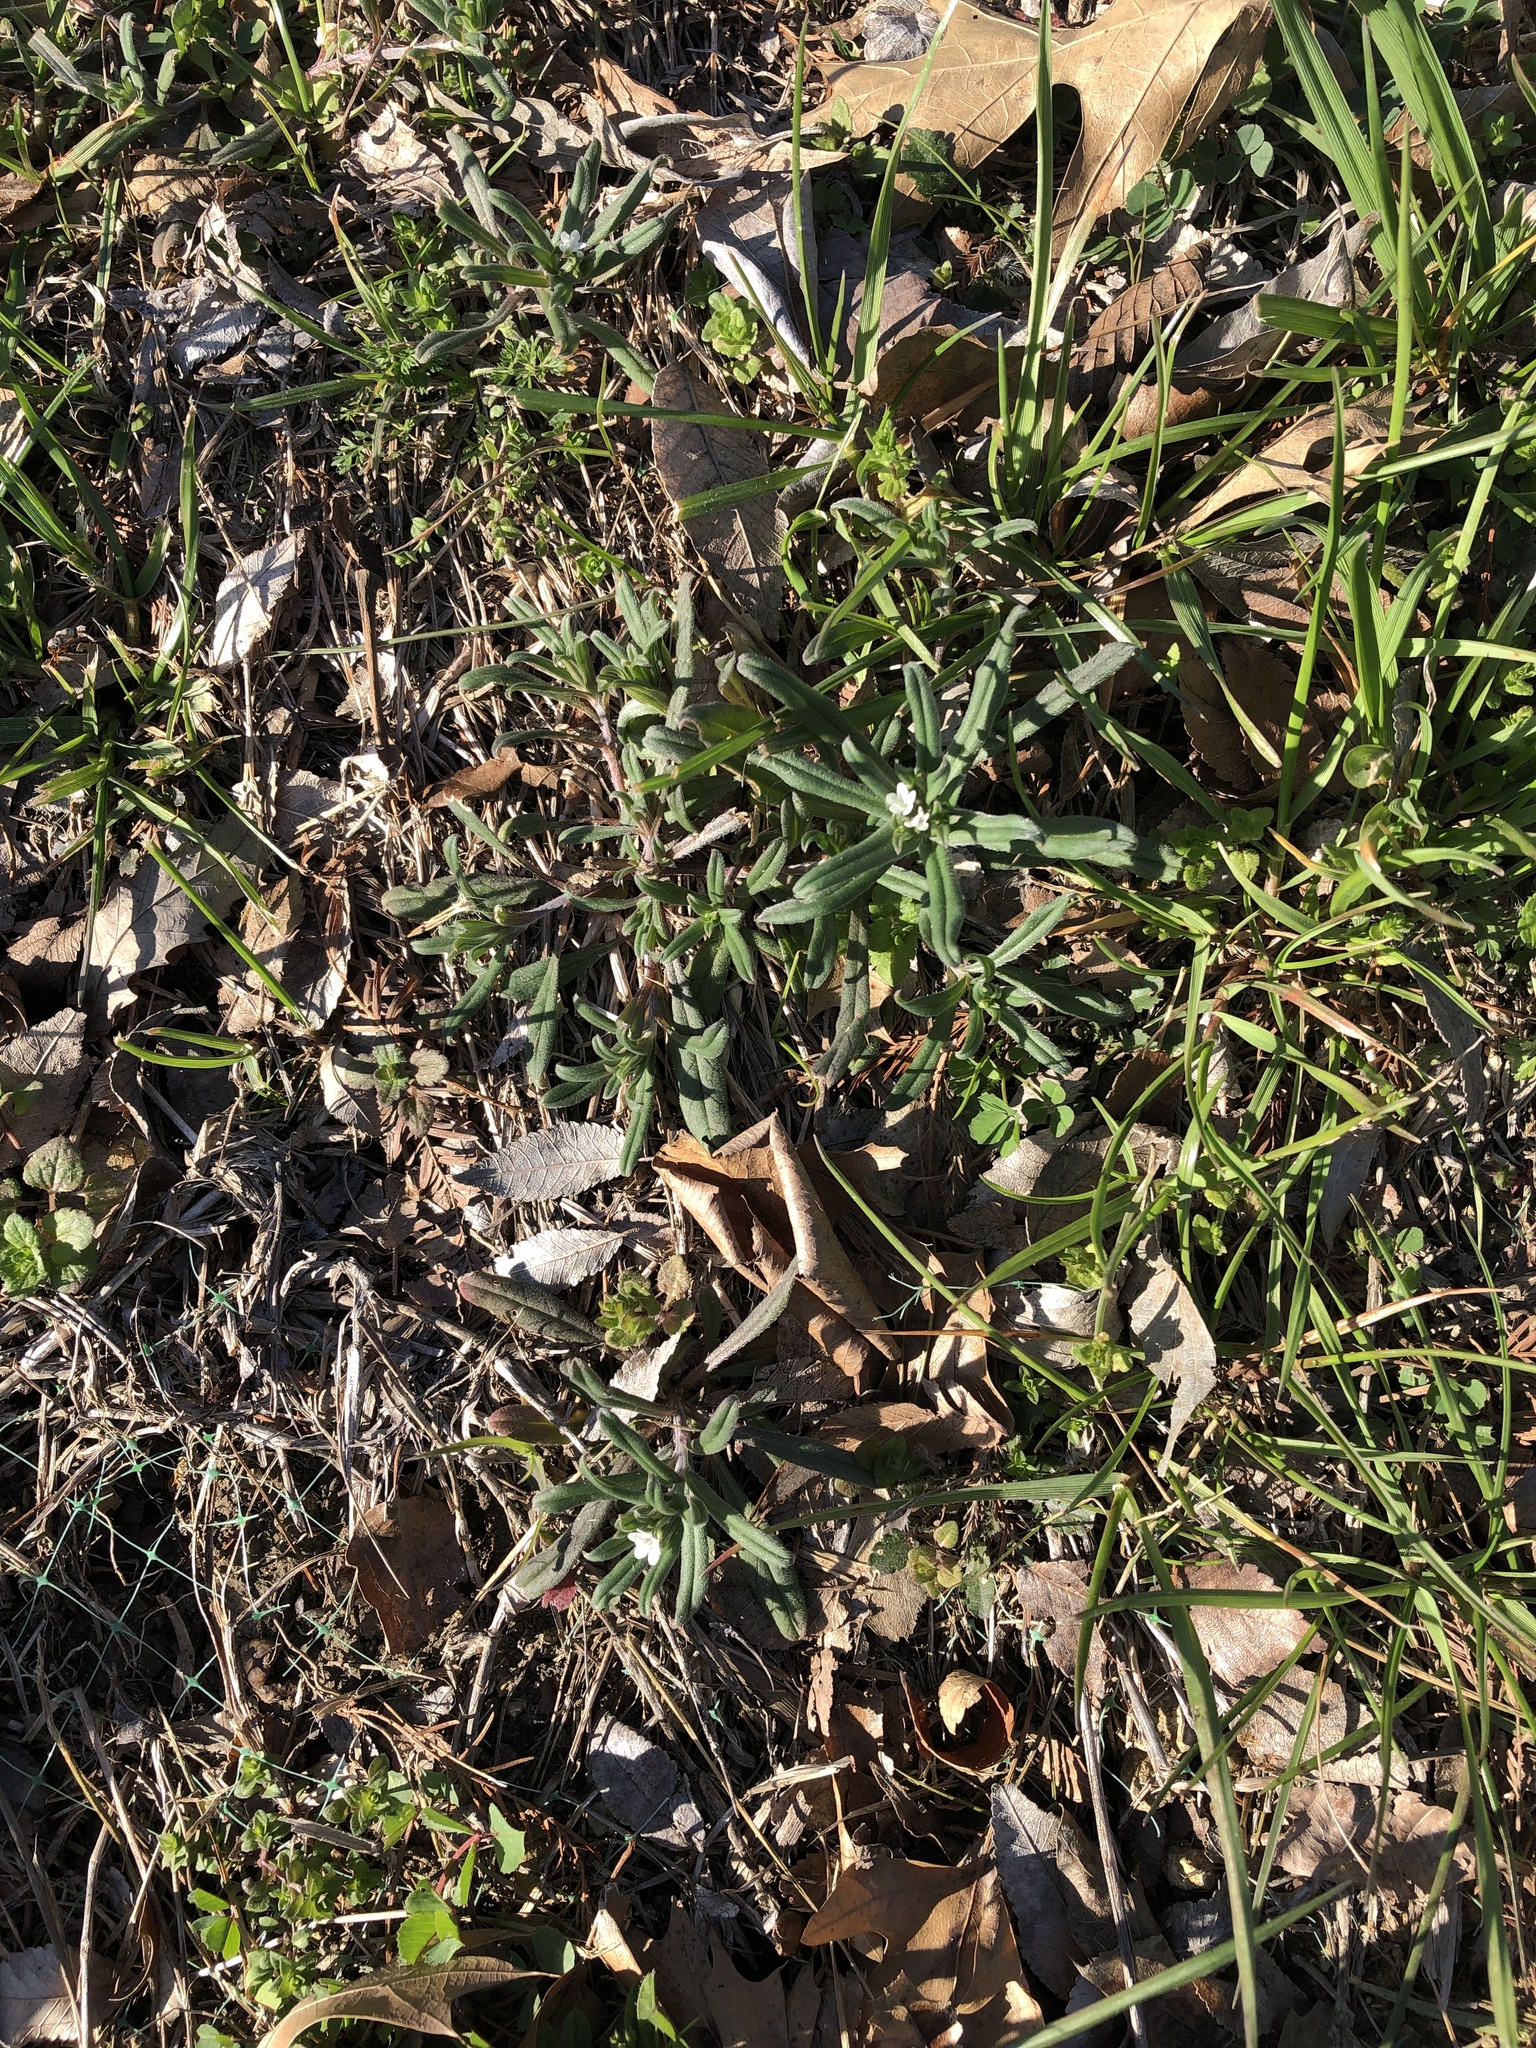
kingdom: Plantae
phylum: Tracheophyta
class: Magnoliopsida
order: Boraginales
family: Boraginaceae
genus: Buglossoides
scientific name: Buglossoides arvensis
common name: Corn gromwell
